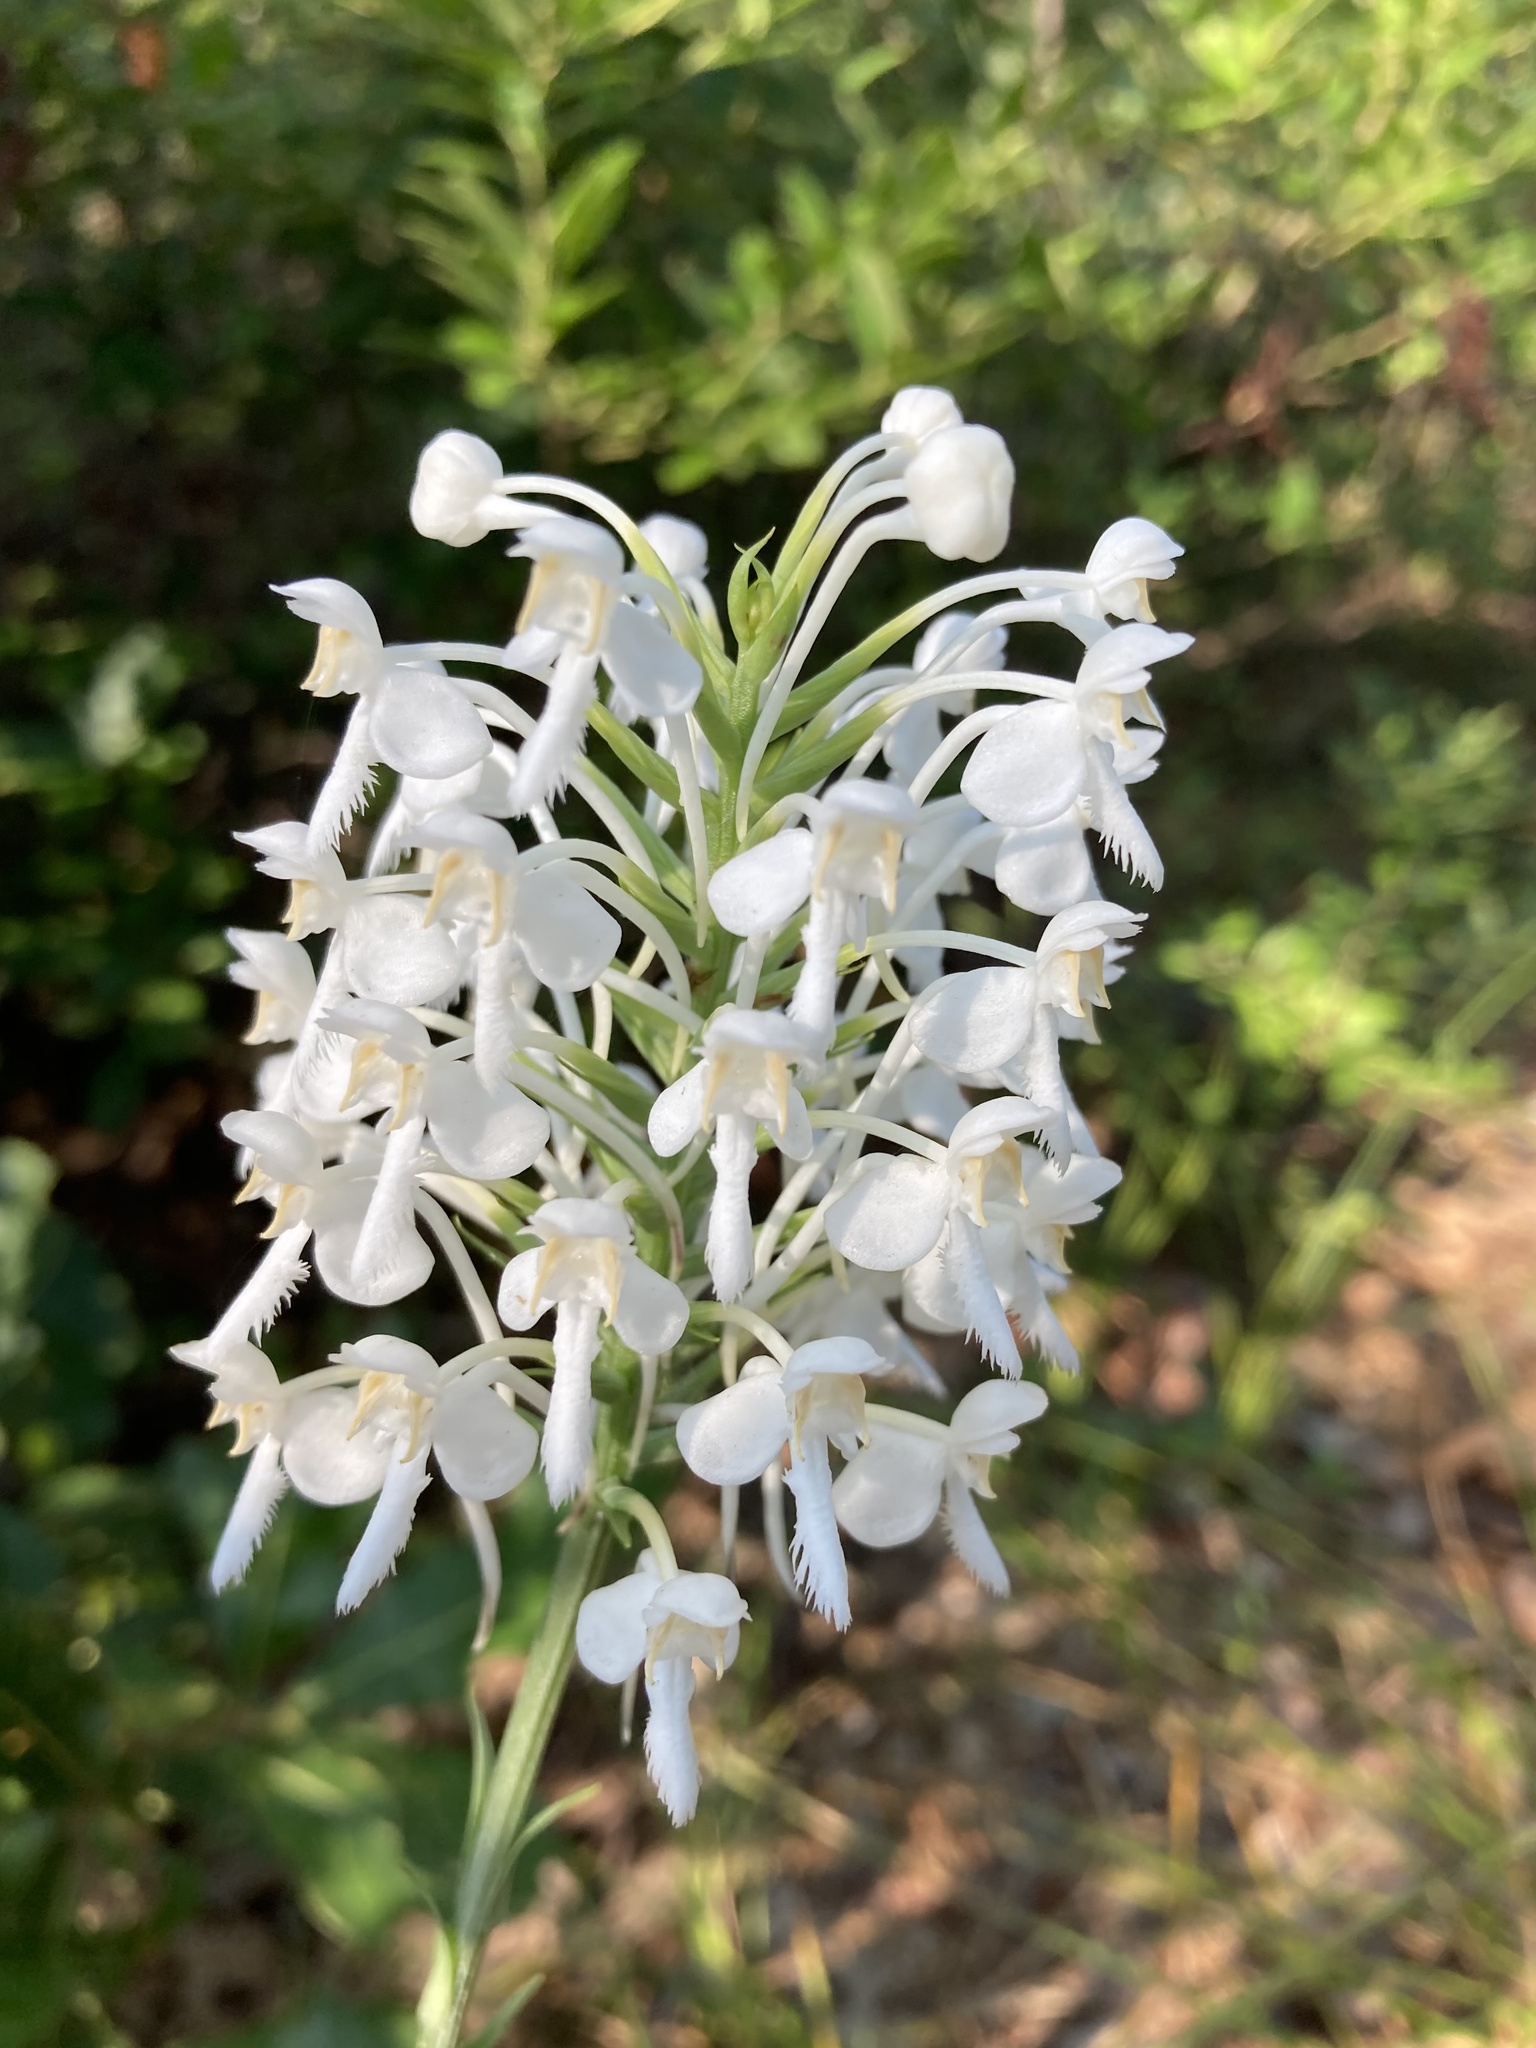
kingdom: Plantae
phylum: Tracheophyta
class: Liliopsida
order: Asparagales
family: Orchidaceae
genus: Platanthera
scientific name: Platanthera blephariglottis
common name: White fringed orchid
